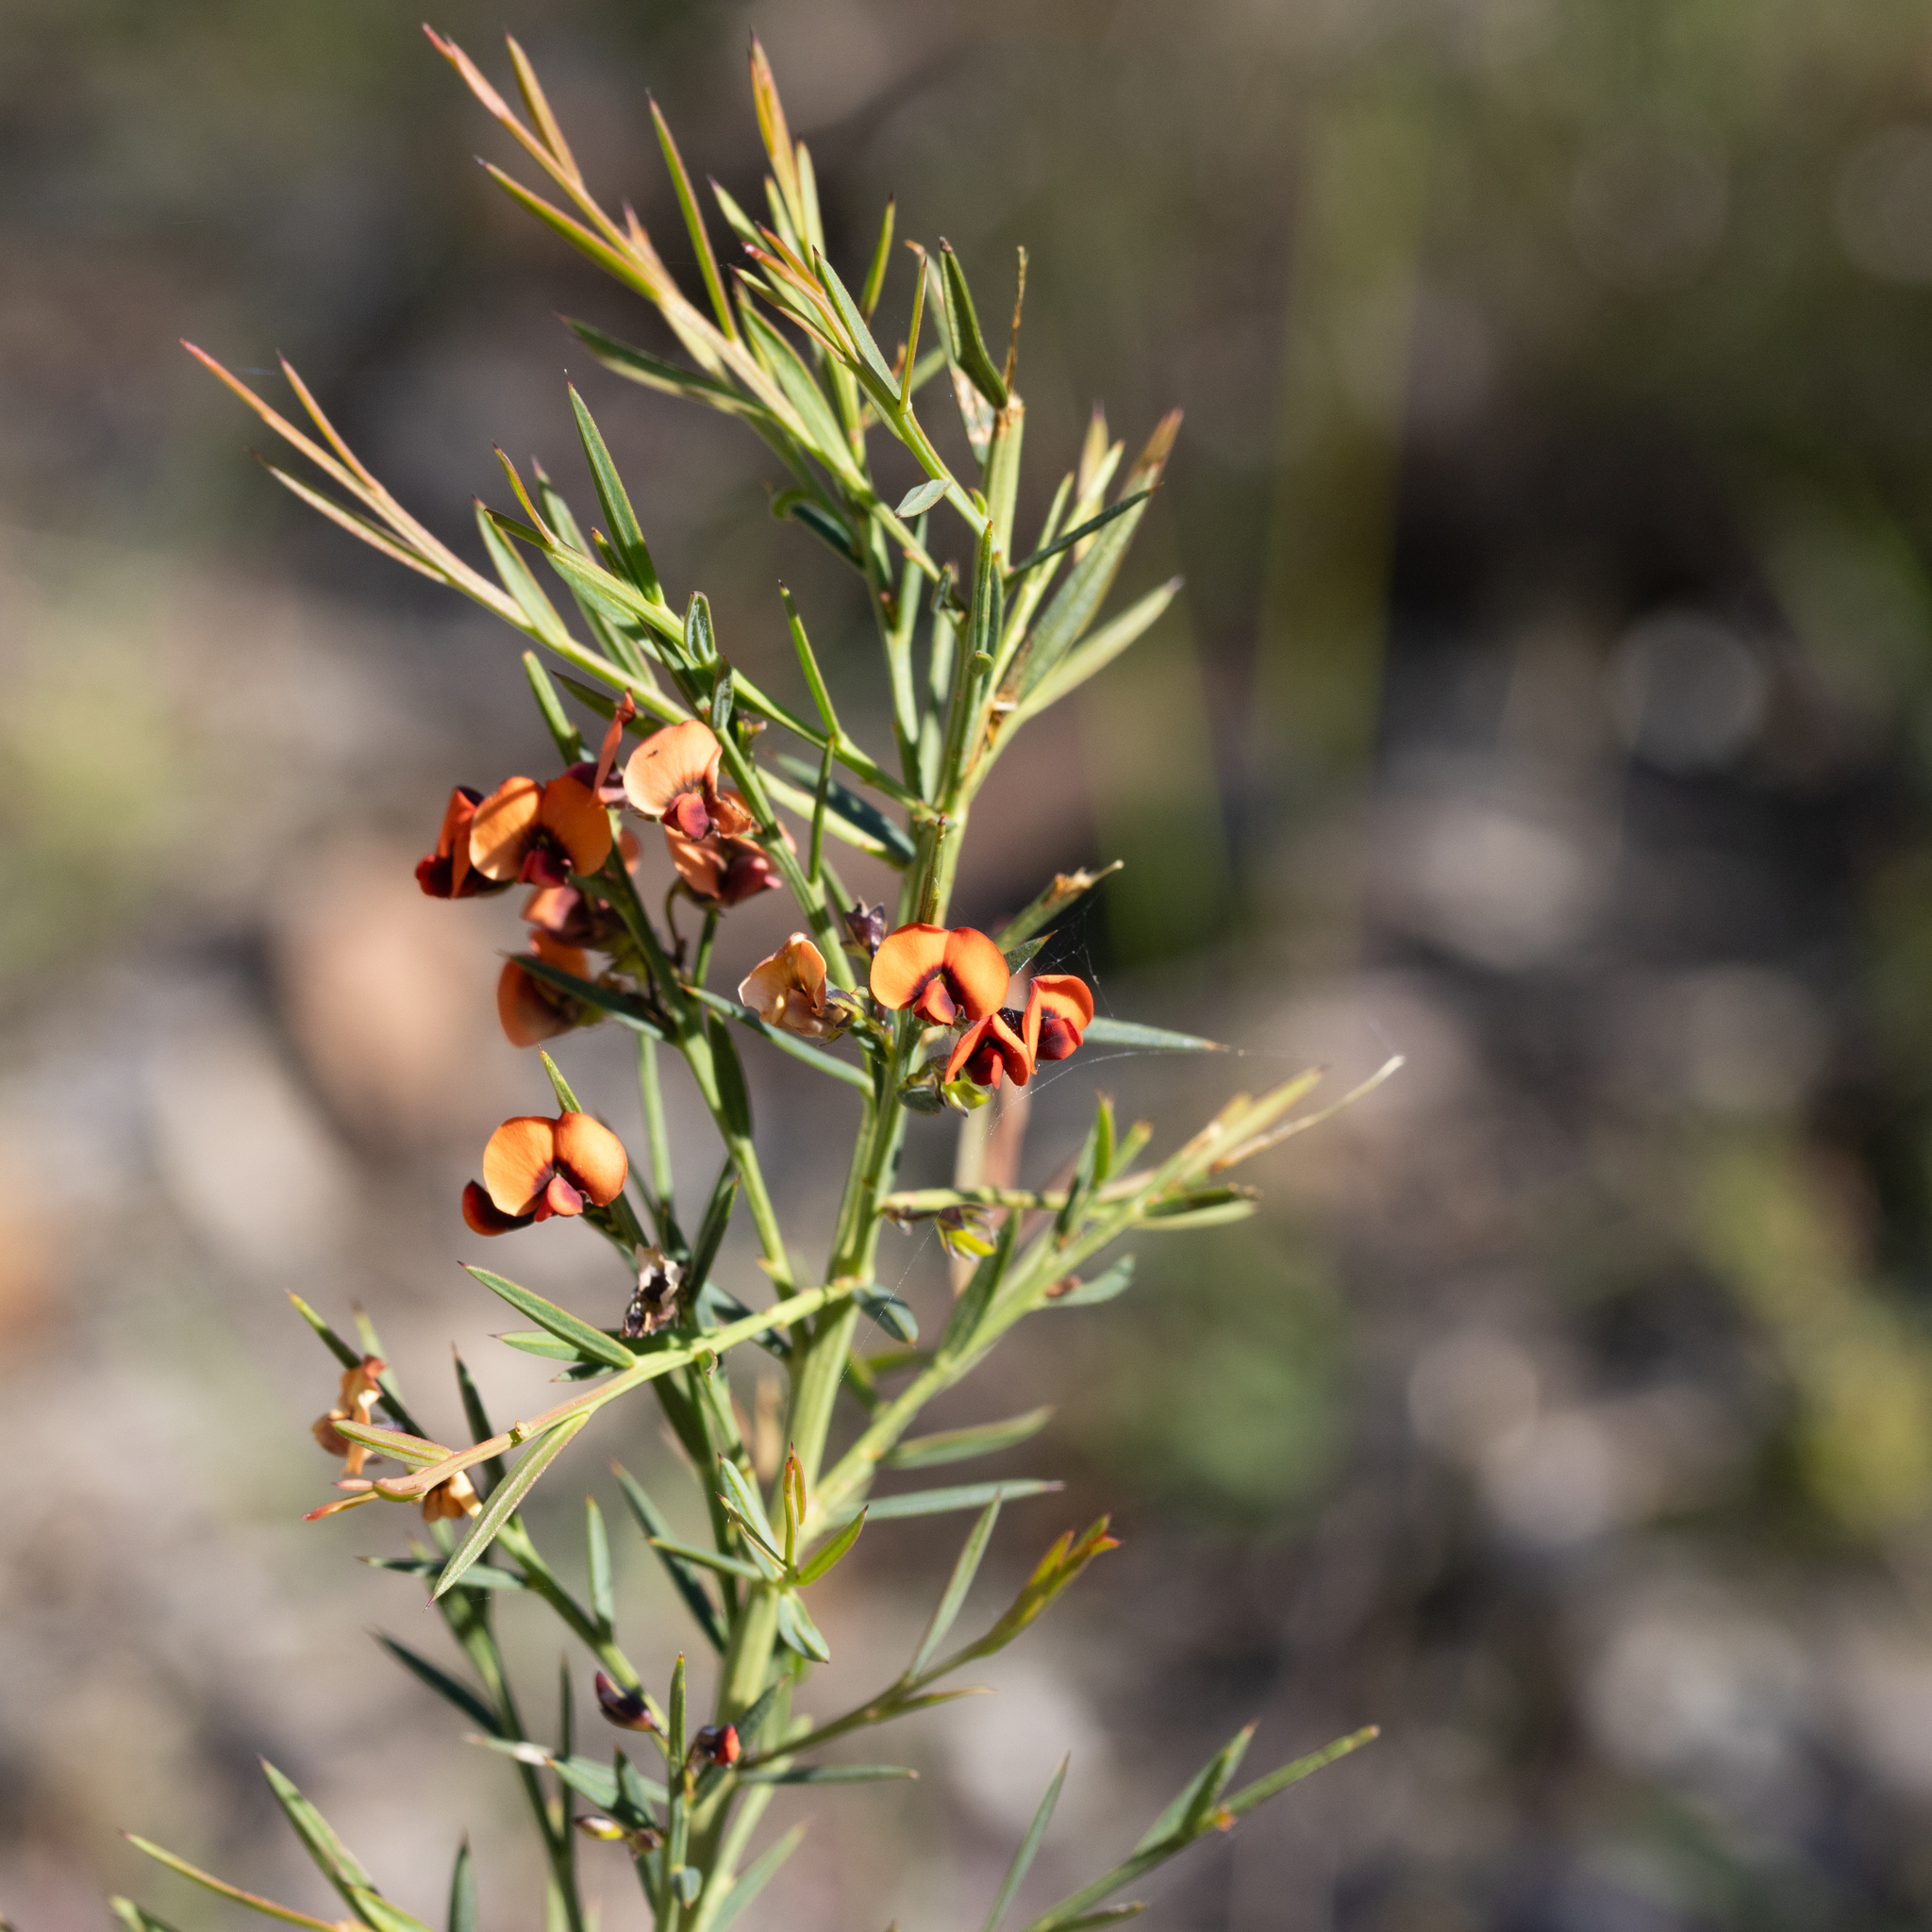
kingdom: Plantae
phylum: Tracheophyta
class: Magnoliopsida
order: Fabales
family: Fabaceae
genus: Daviesia
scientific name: Daviesia ulicifolia
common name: Gorse bitter-pea
